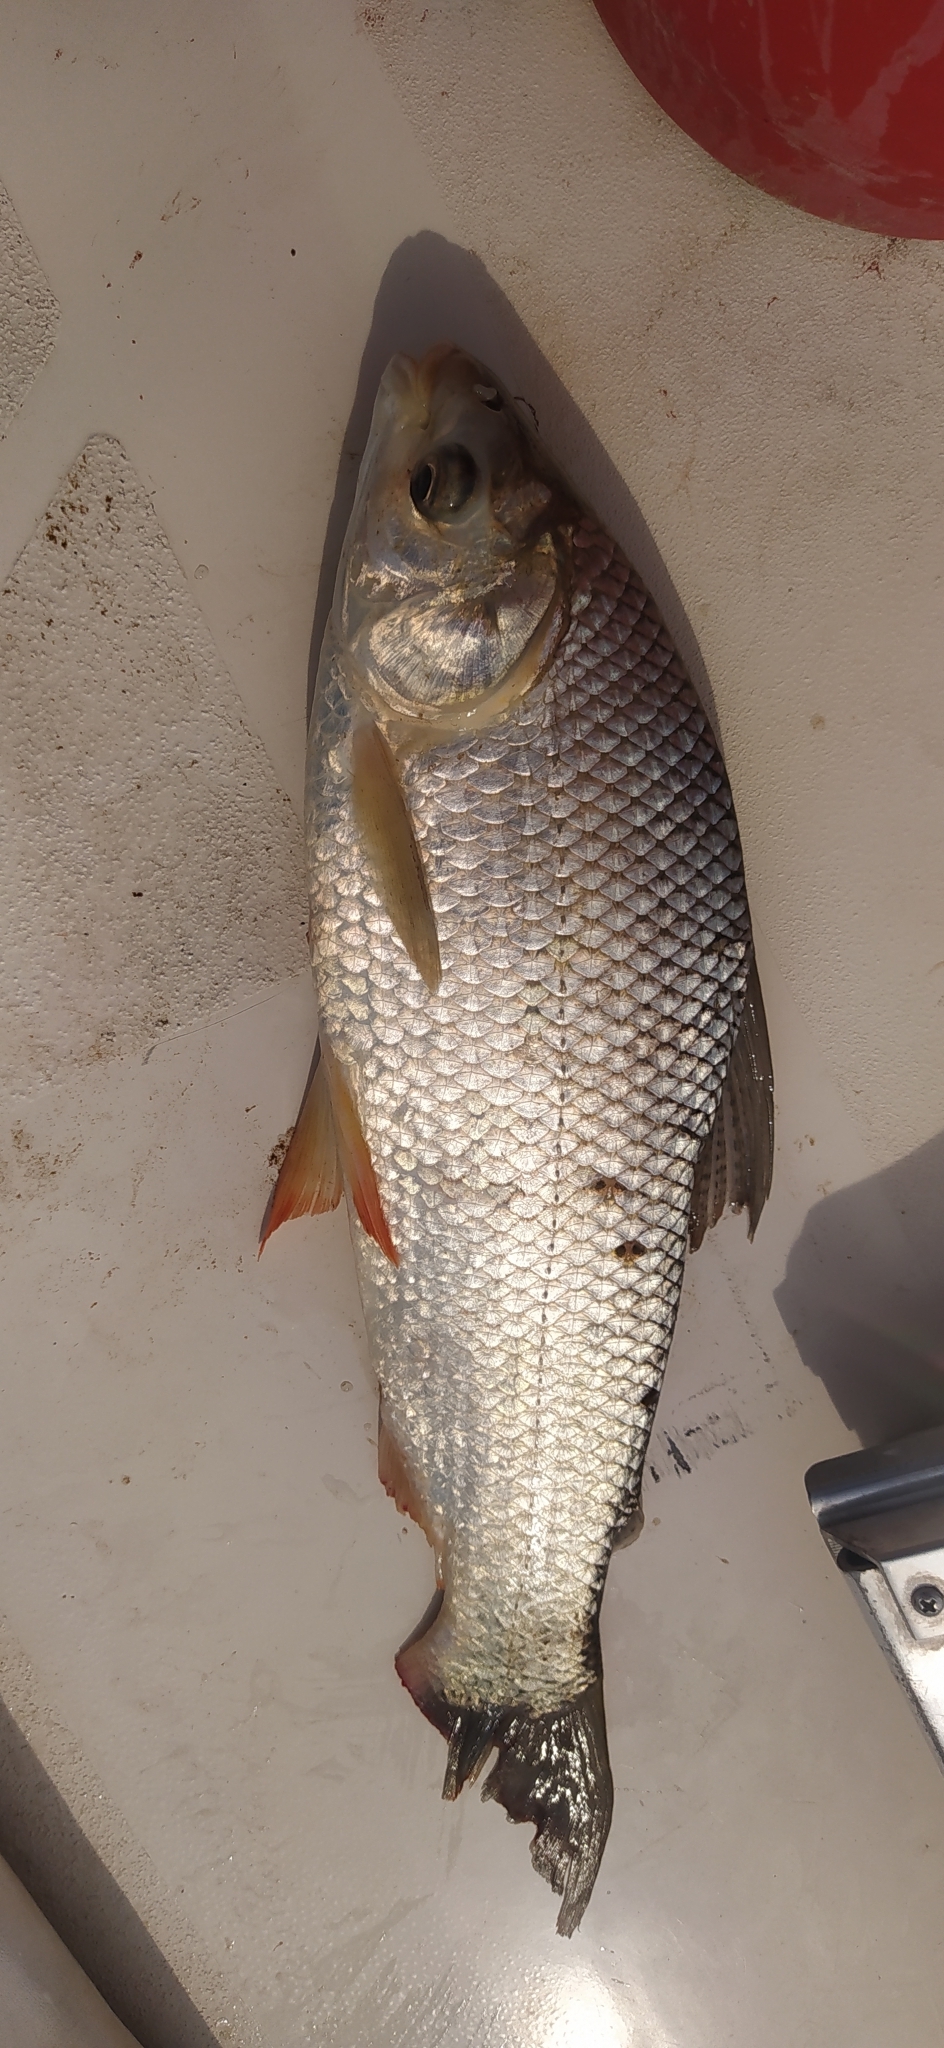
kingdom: Animalia
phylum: Chordata
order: Characiformes
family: Prochilodontidae
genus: Prochilodus
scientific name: Prochilodus lineatus
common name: Curimbata
